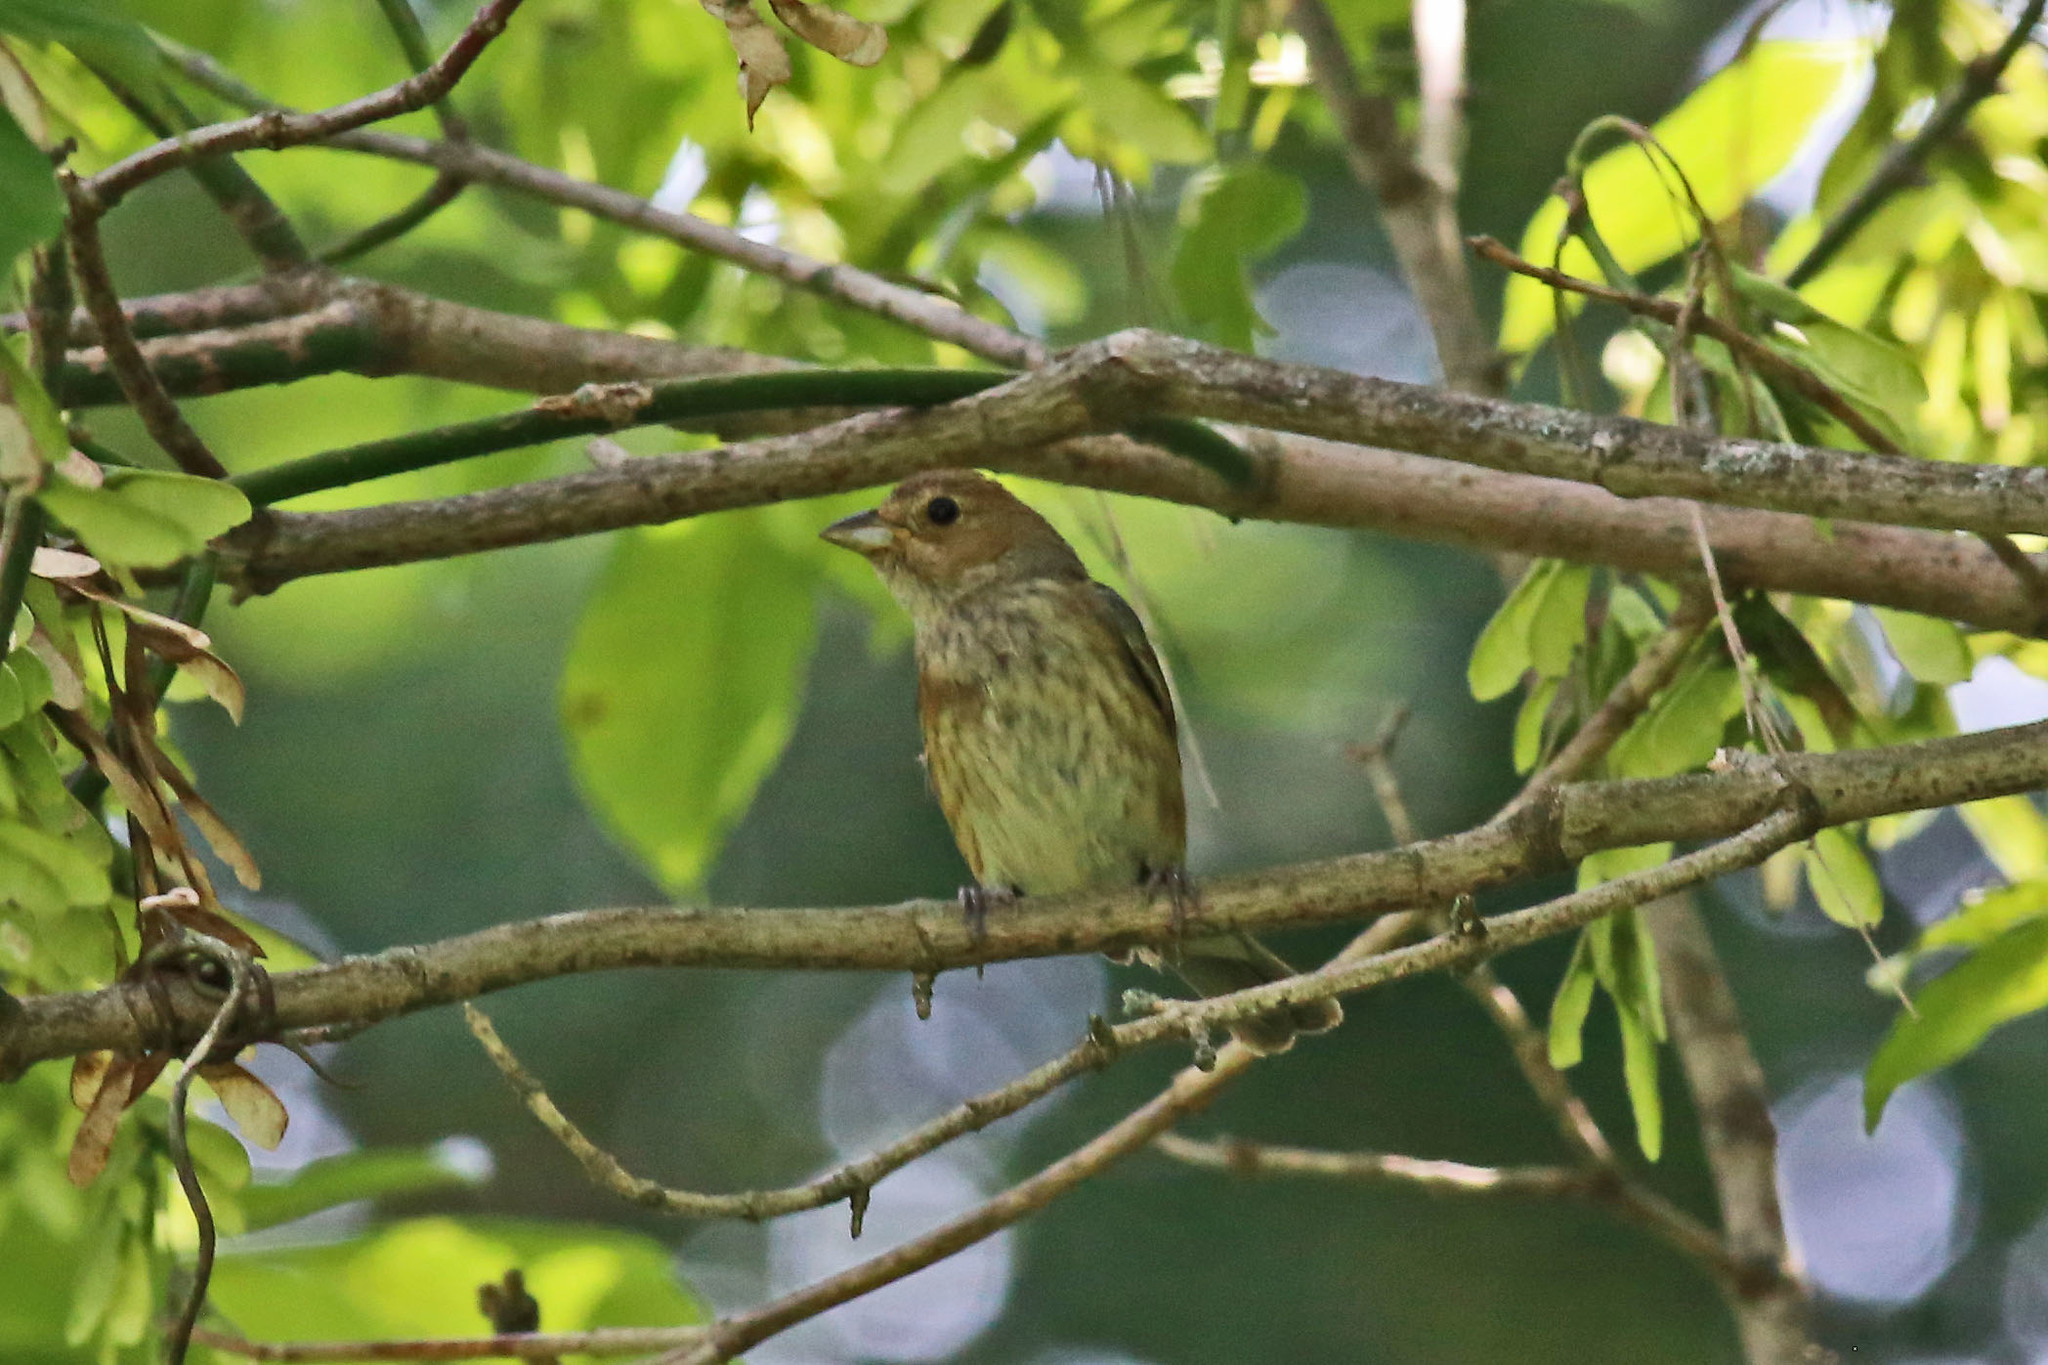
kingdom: Animalia
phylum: Chordata
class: Aves
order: Passeriformes
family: Cardinalidae
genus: Passerina
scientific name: Passerina cyanea
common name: Indigo bunting
